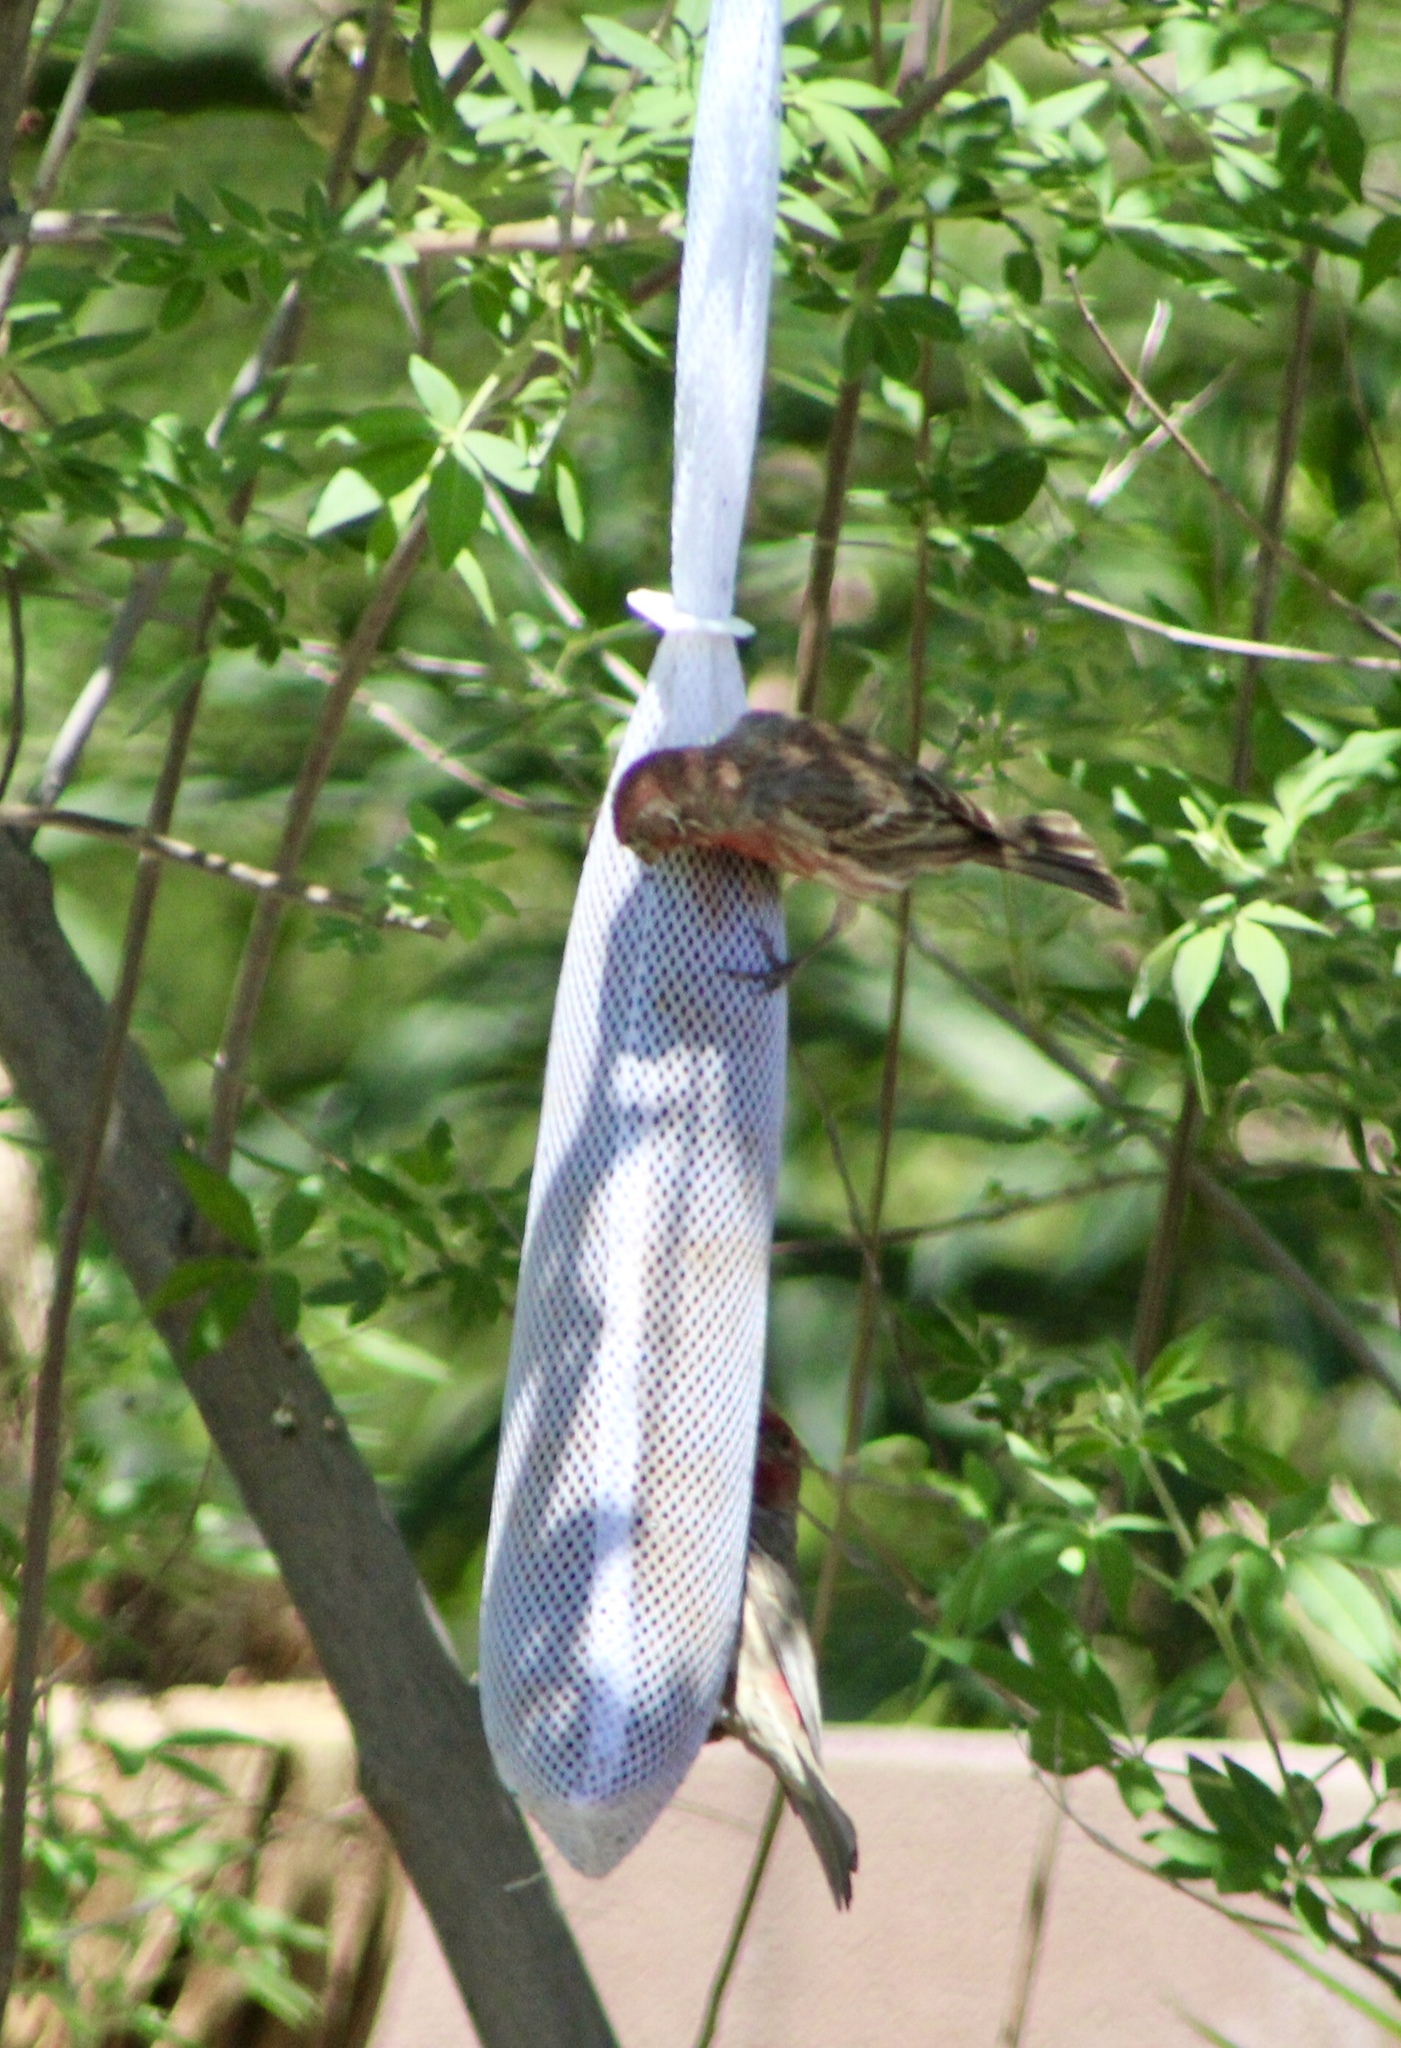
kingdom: Animalia
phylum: Chordata
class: Aves
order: Passeriformes
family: Fringillidae
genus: Haemorhous
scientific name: Haemorhous mexicanus
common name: House finch
